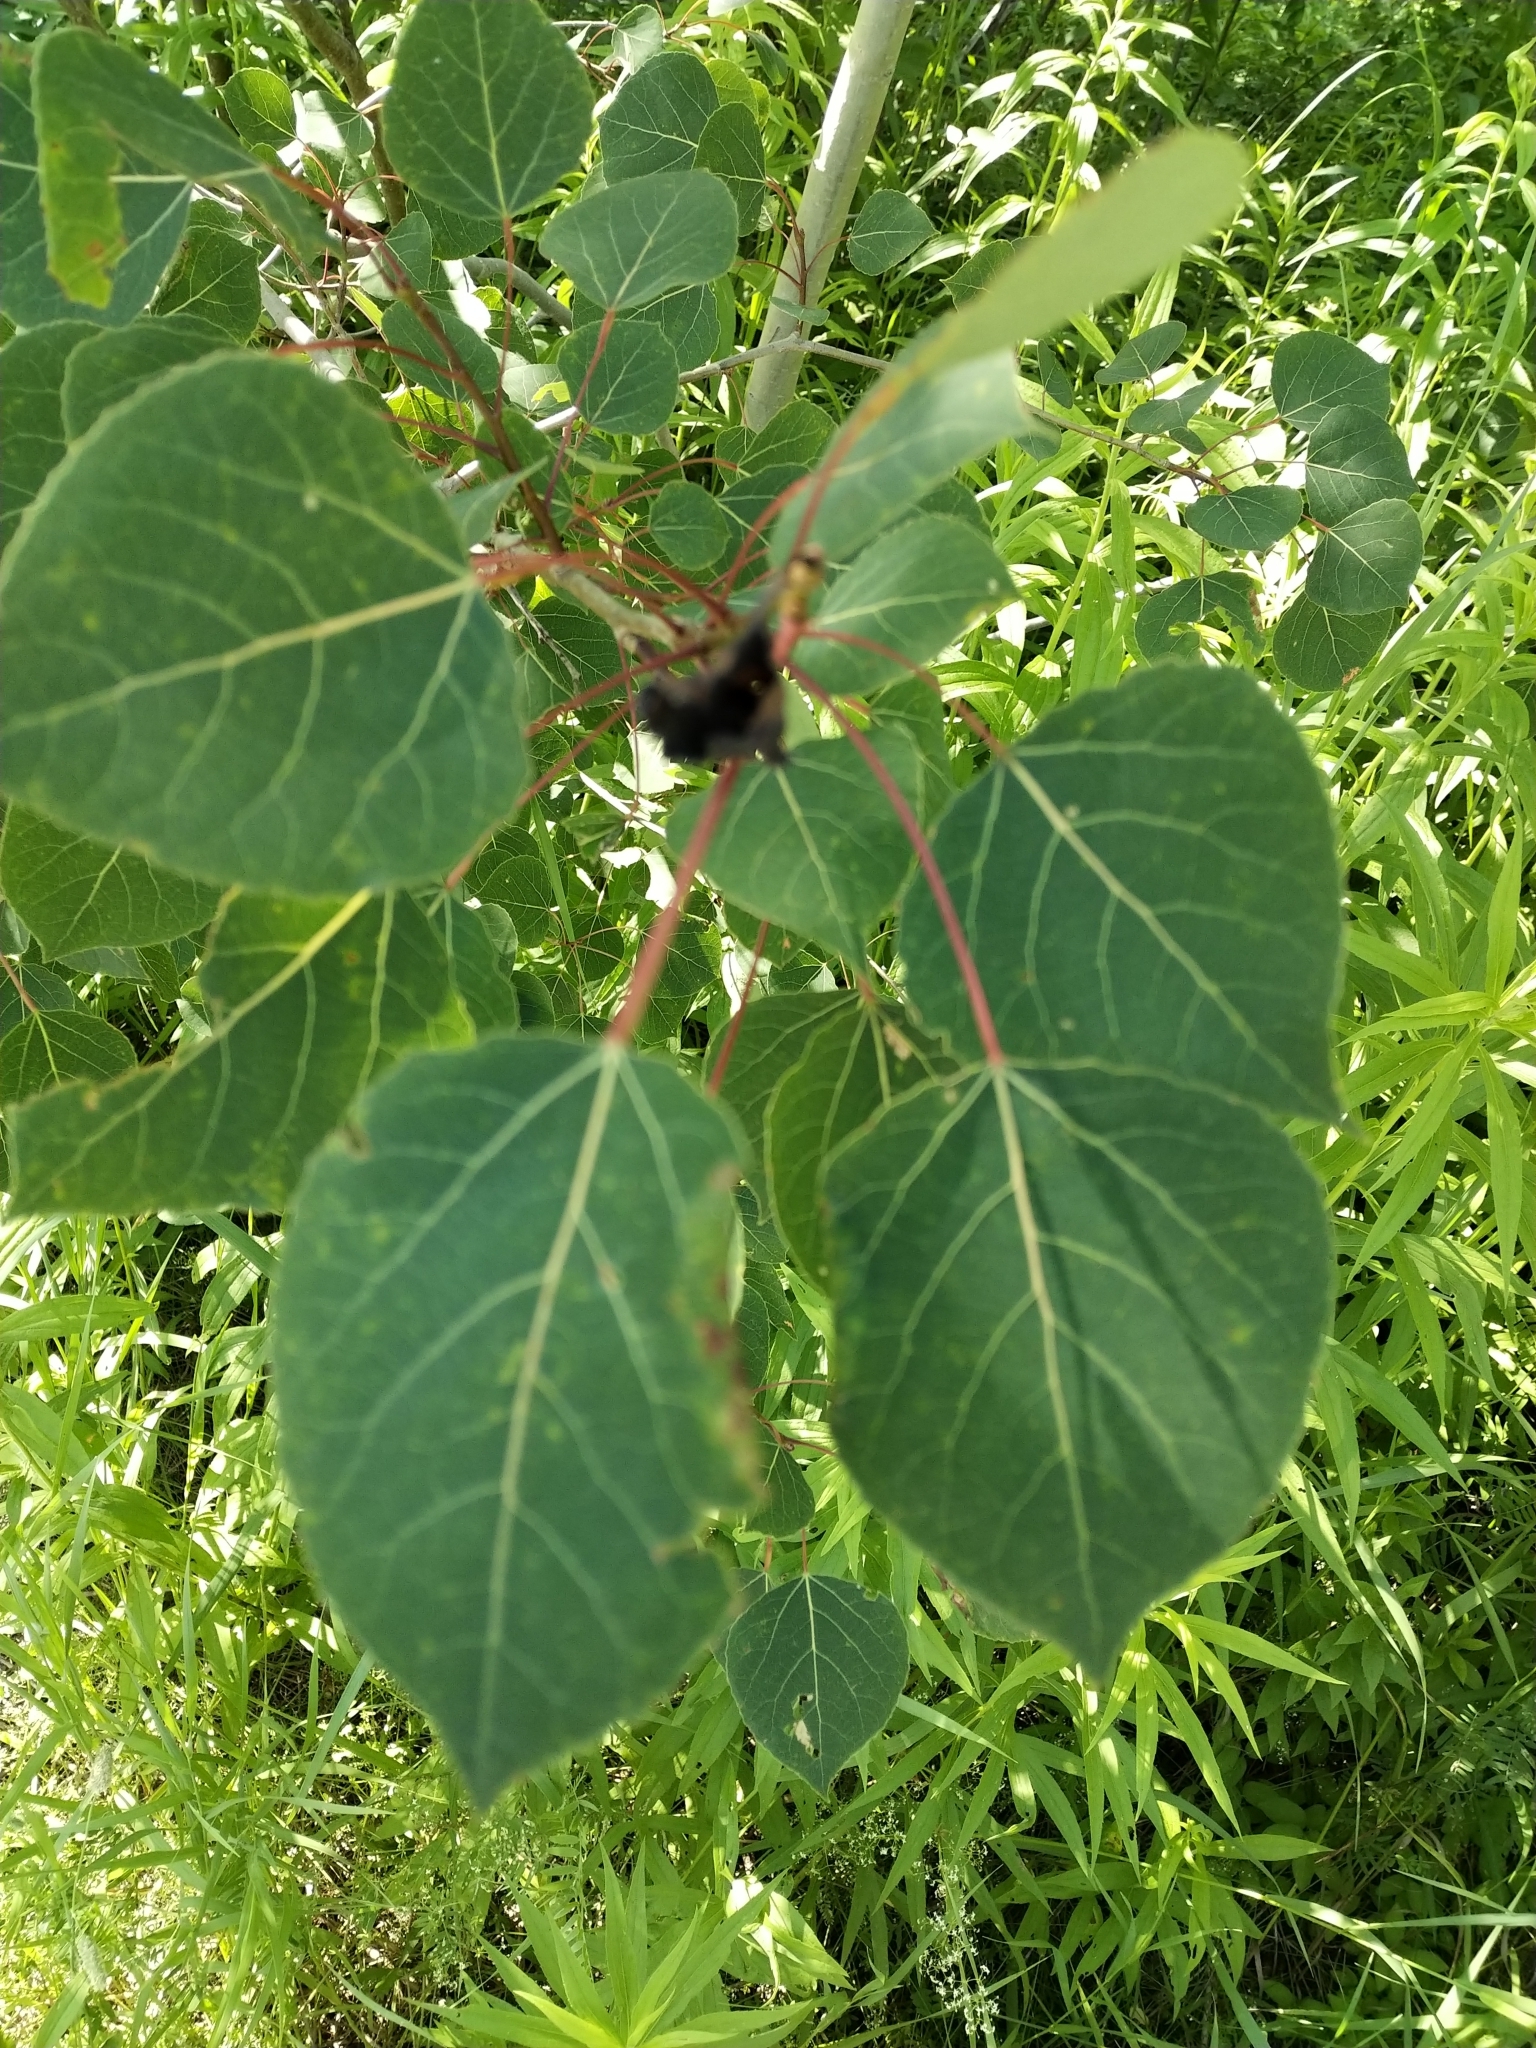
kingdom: Plantae
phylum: Tracheophyta
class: Magnoliopsida
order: Malpighiales
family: Salicaceae
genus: Populus
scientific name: Populus tremuloides
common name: Quaking aspen
